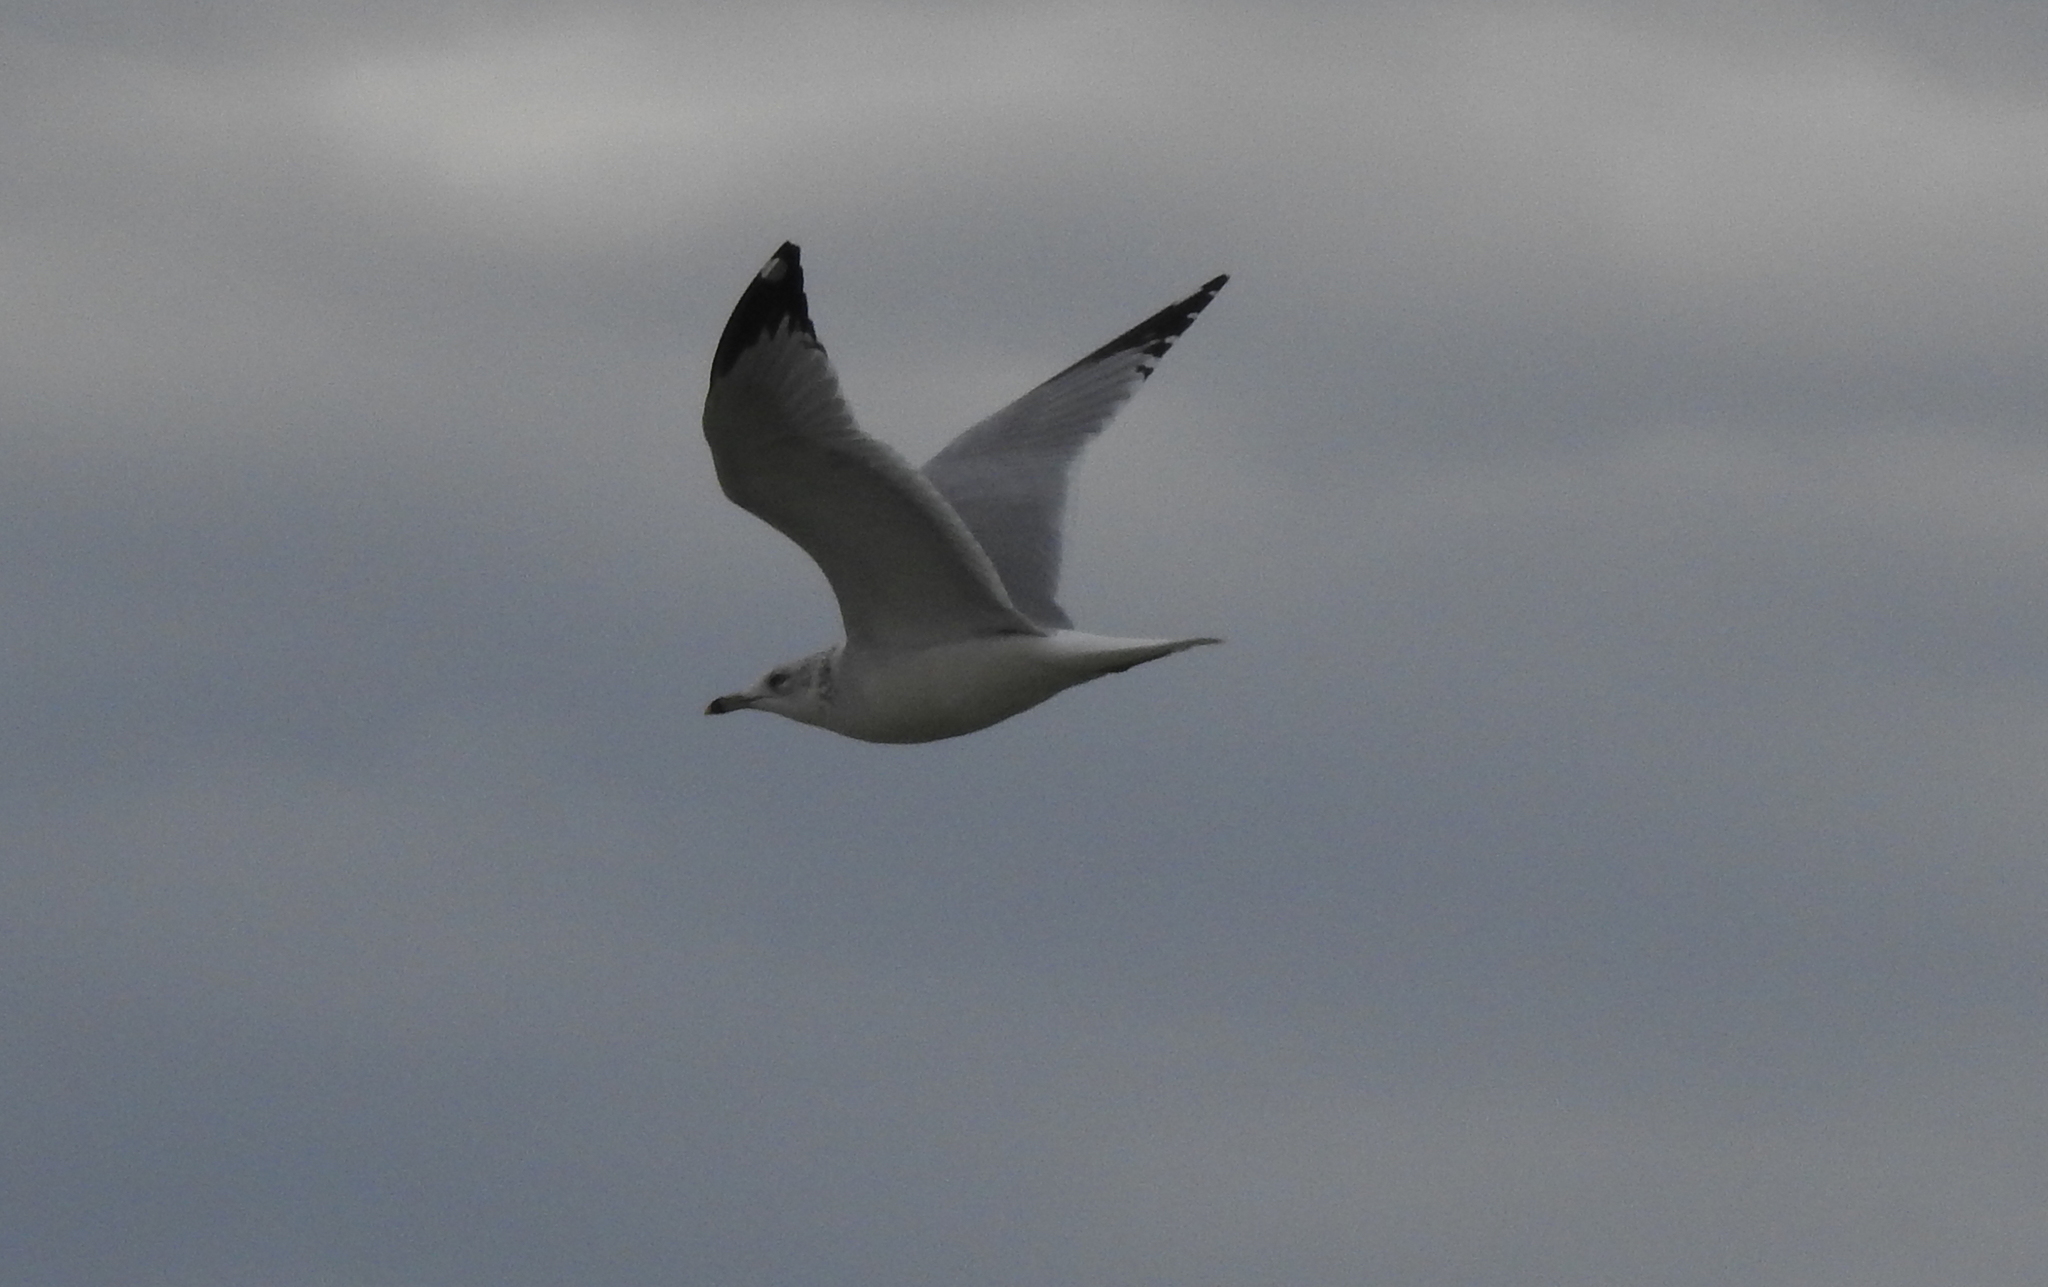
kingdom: Animalia
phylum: Chordata
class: Aves
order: Charadriiformes
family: Laridae
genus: Larus
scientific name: Larus delawarensis
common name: Ring-billed gull
